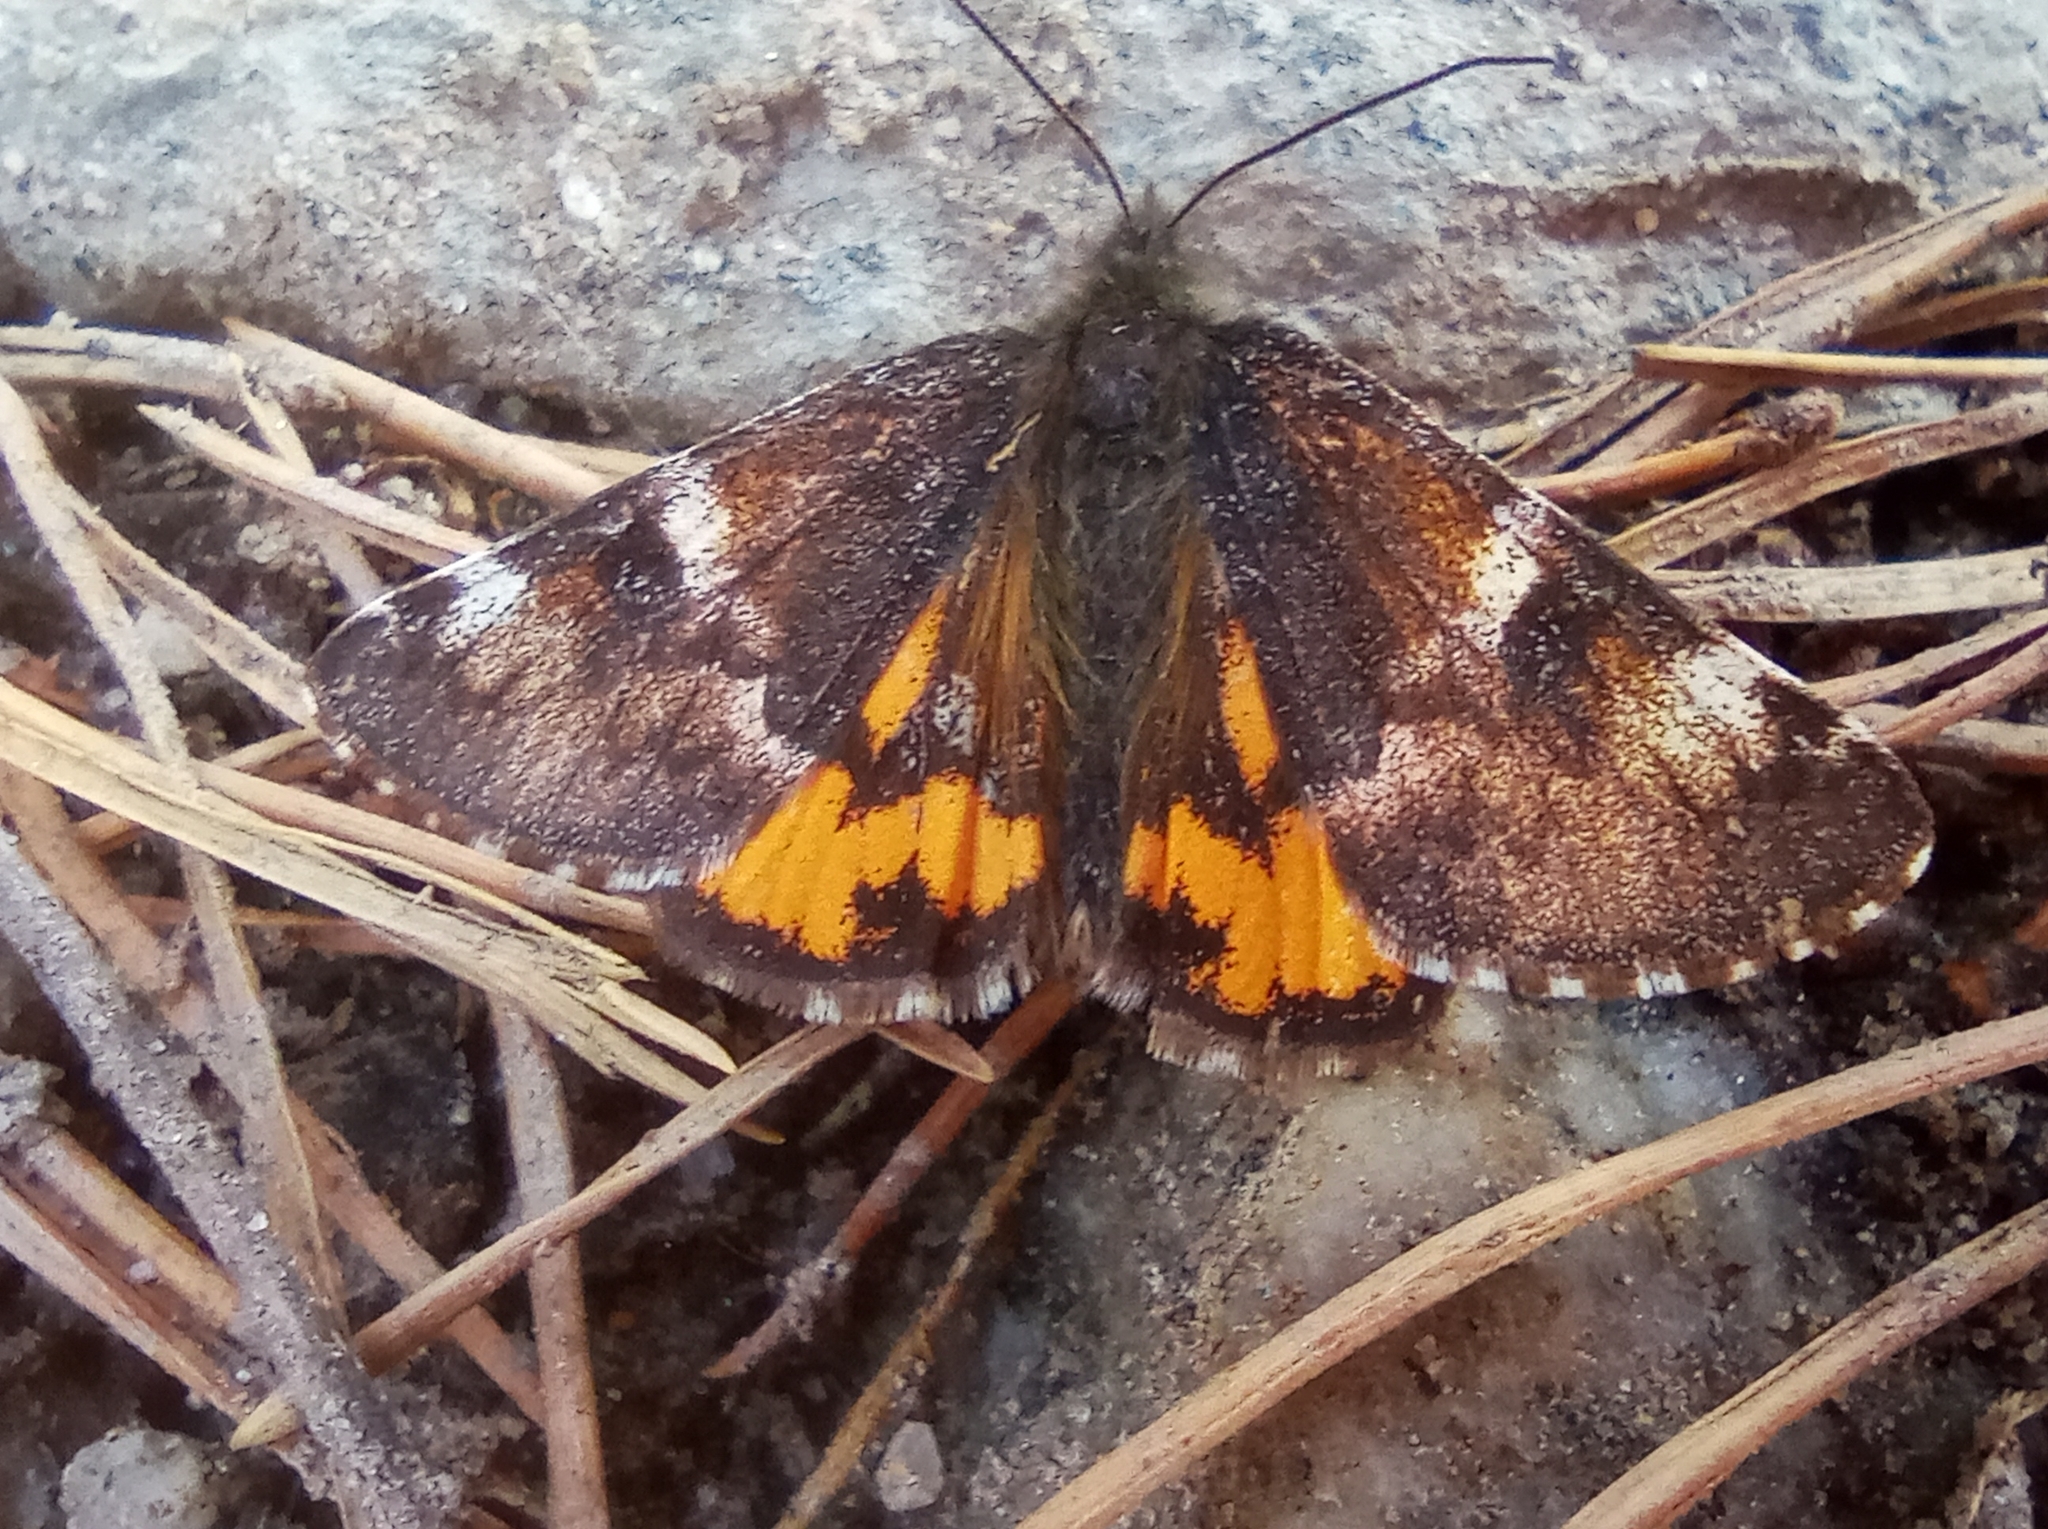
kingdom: Animalia
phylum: Arthropoda
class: Insecta
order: Lepidoptera
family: Geometridae
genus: Archiearis
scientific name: Archiearis parthenias
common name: Orange underwing
